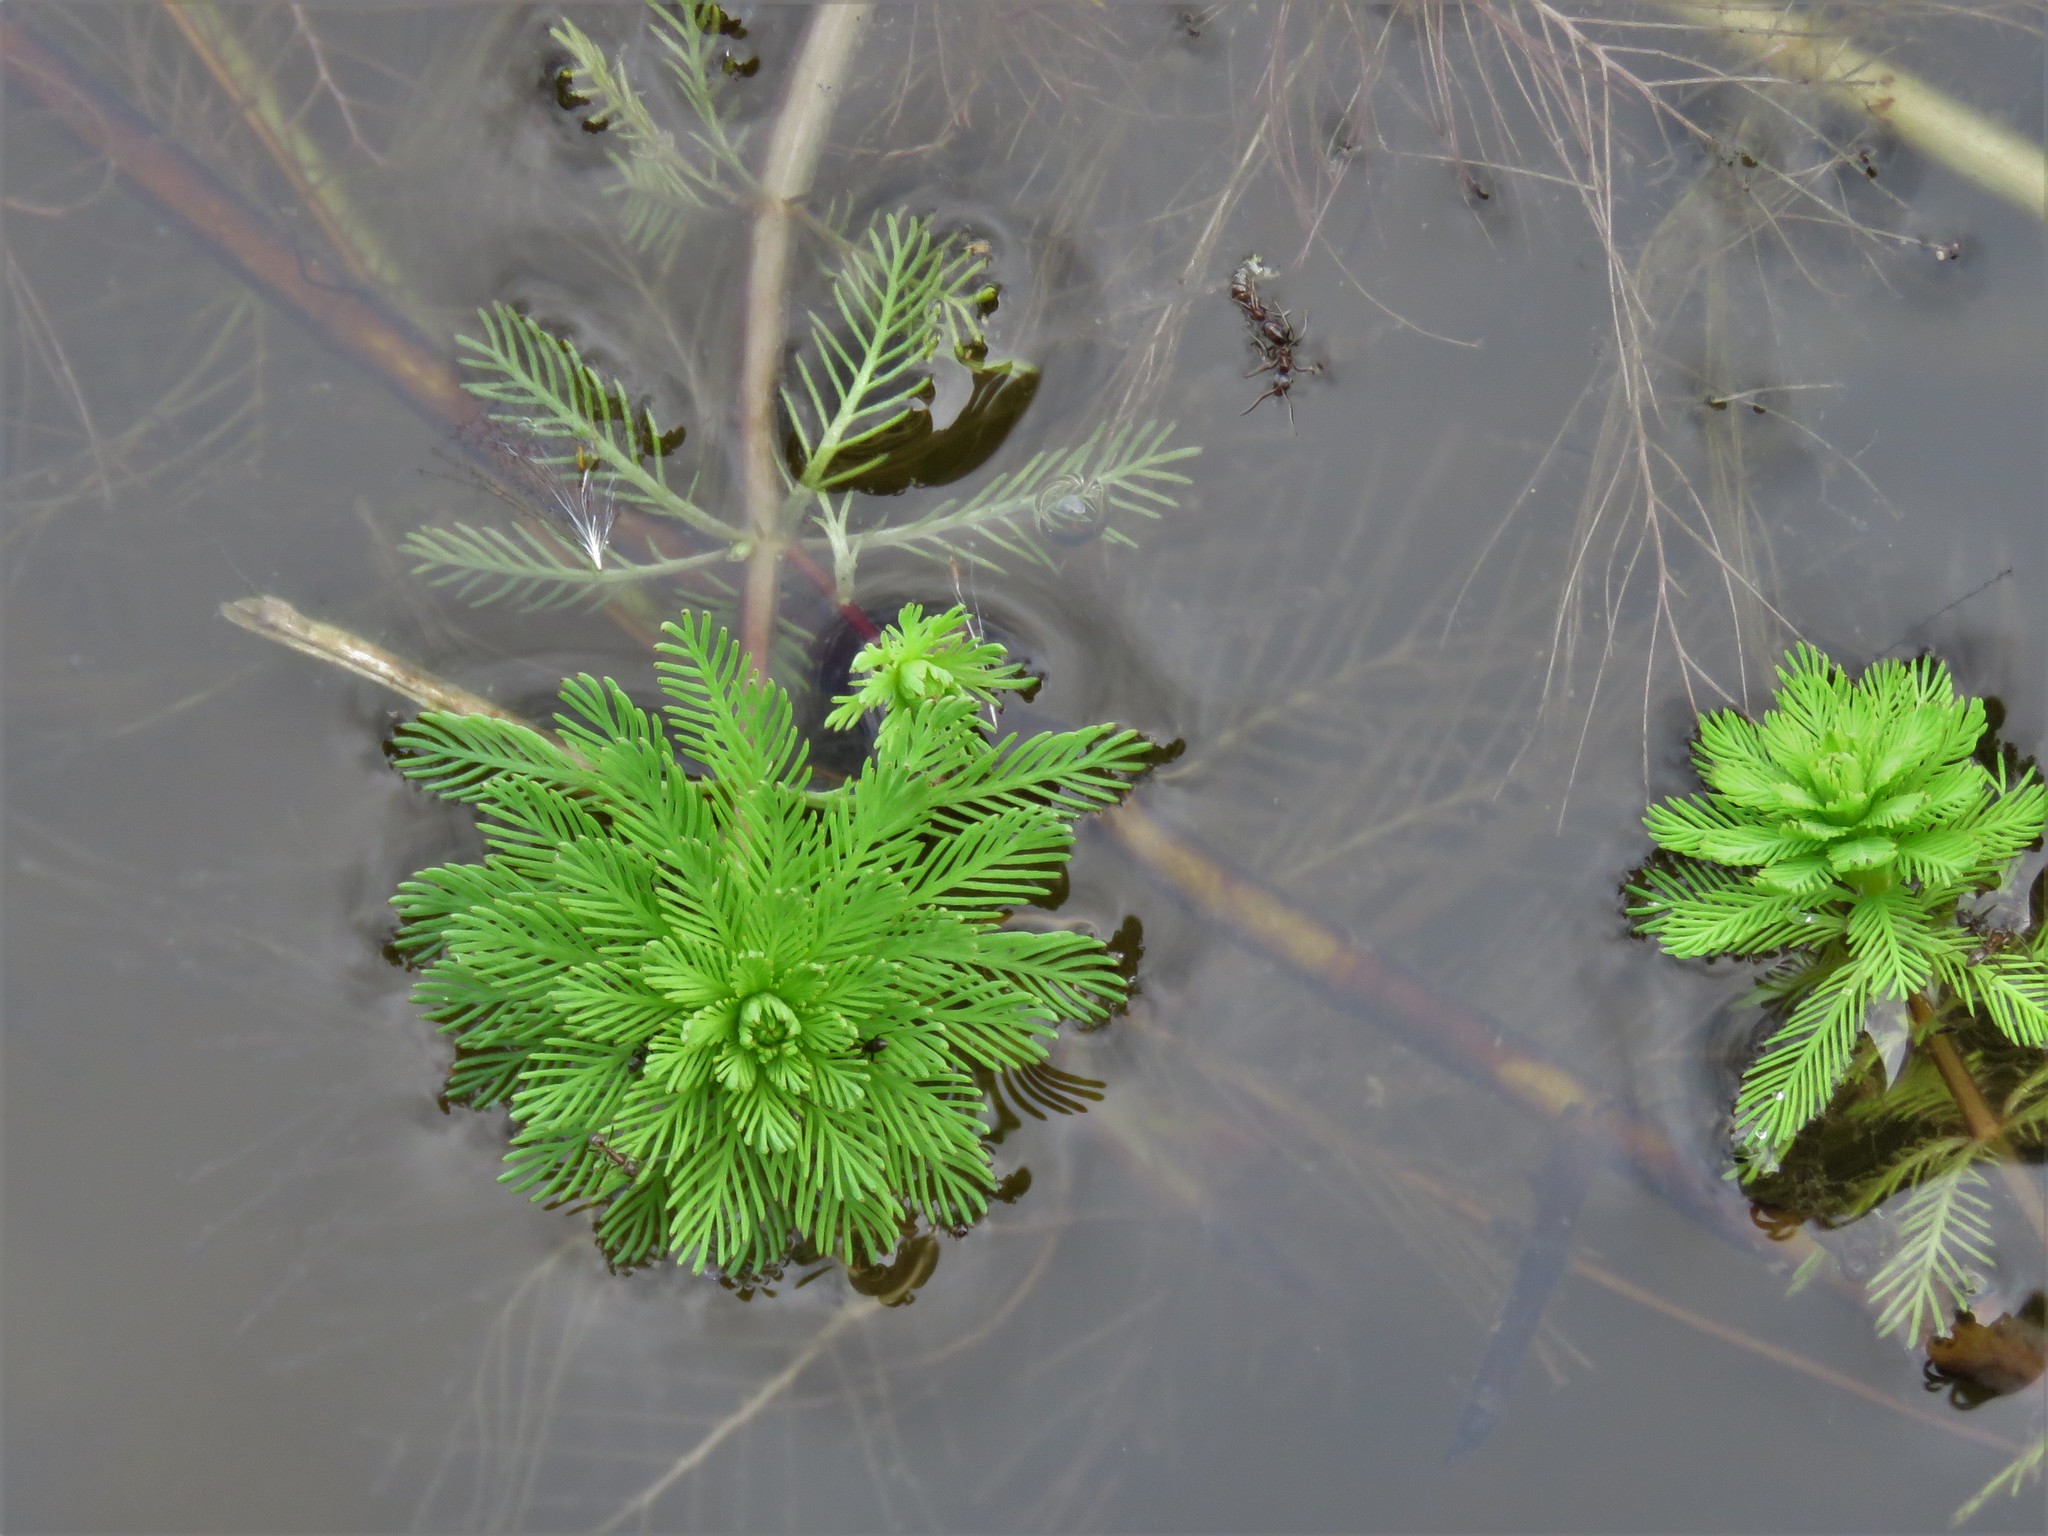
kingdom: Plantae
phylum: Tracheophyta
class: Magnoliopsida
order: Saxifragales
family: Haloragaceae
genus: Myriophyllum
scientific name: Myriophyllum aquaticum
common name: Parrot's feather
